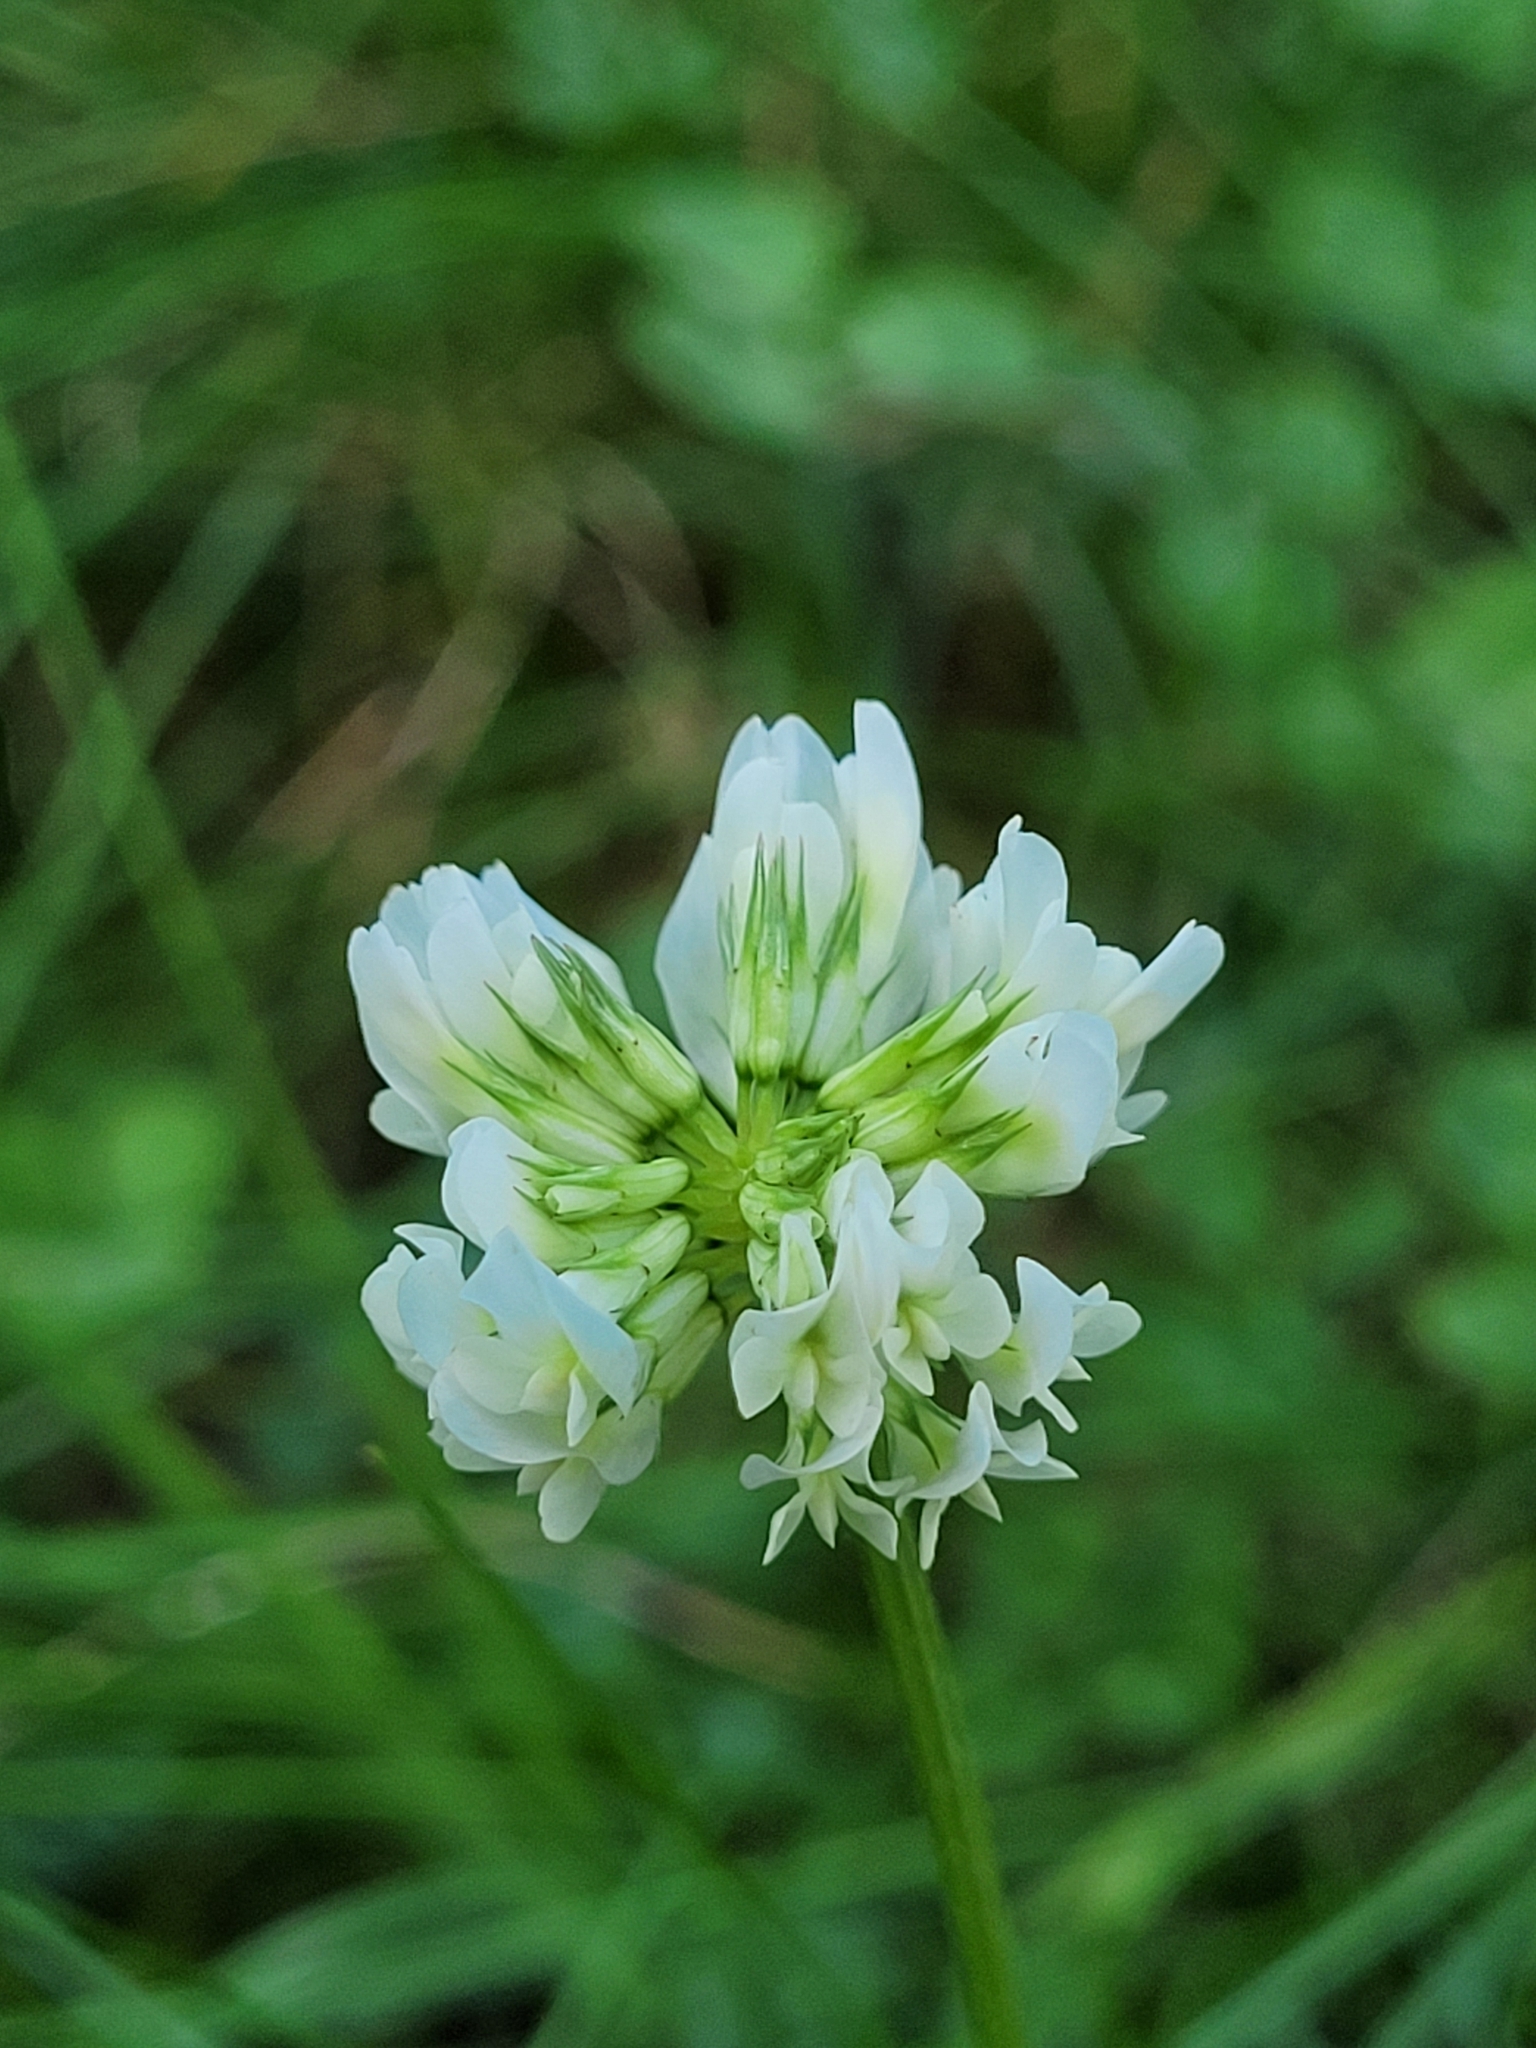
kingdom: Plantae
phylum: Tracheophyta
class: Magnoliopsida
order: Fabales
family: Fabaceae
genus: Trifolium
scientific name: Trifolium repens
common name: White clover
